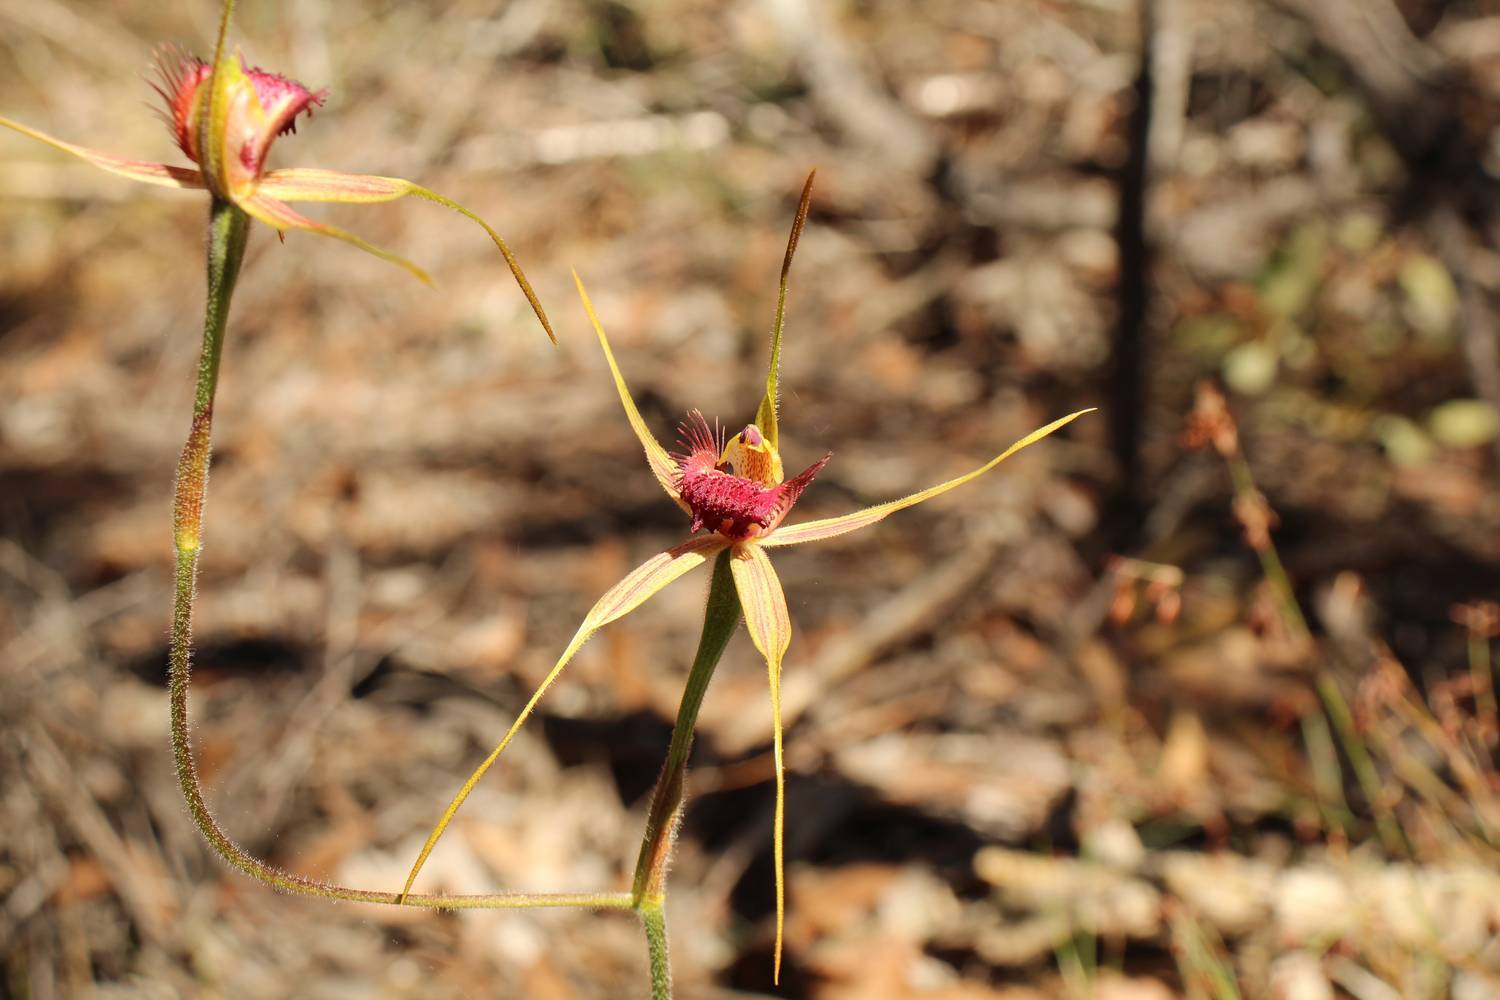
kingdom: Plantae
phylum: Tracheophyta
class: Liliopsida
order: Asparagales
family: Orchidaceae
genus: Caladenia
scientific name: Caladenia decora
